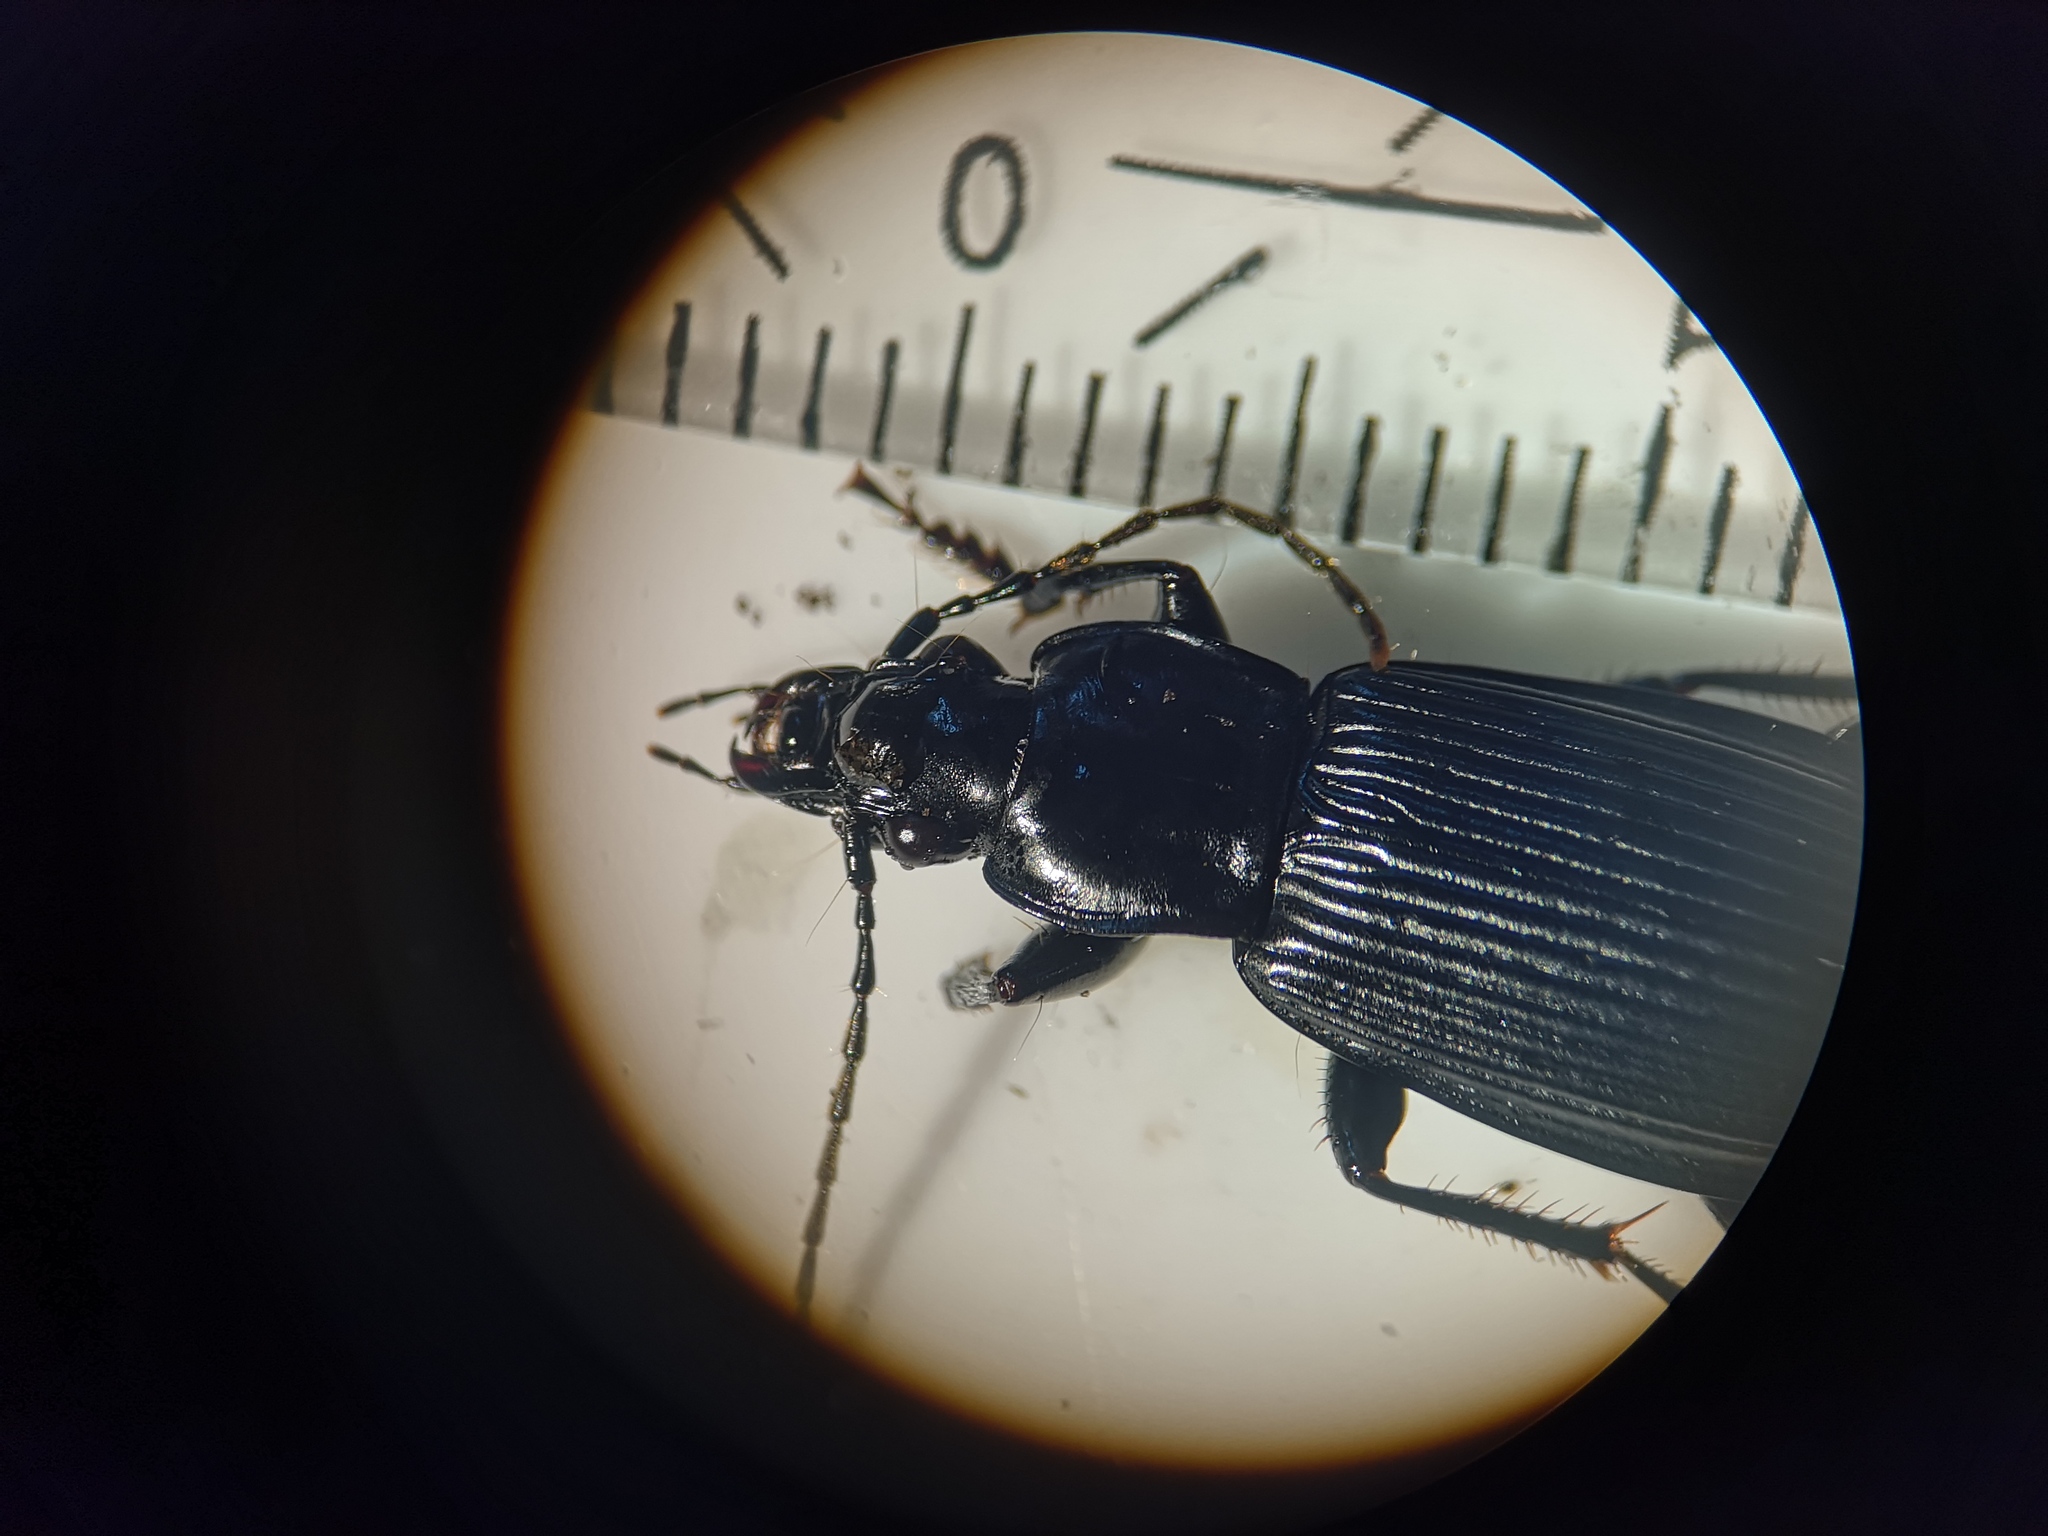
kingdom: Animalia
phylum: Arthropoda
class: Insecta
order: Coleoptera
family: Carabidae
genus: Pterostichus
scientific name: Pterostichus niger
